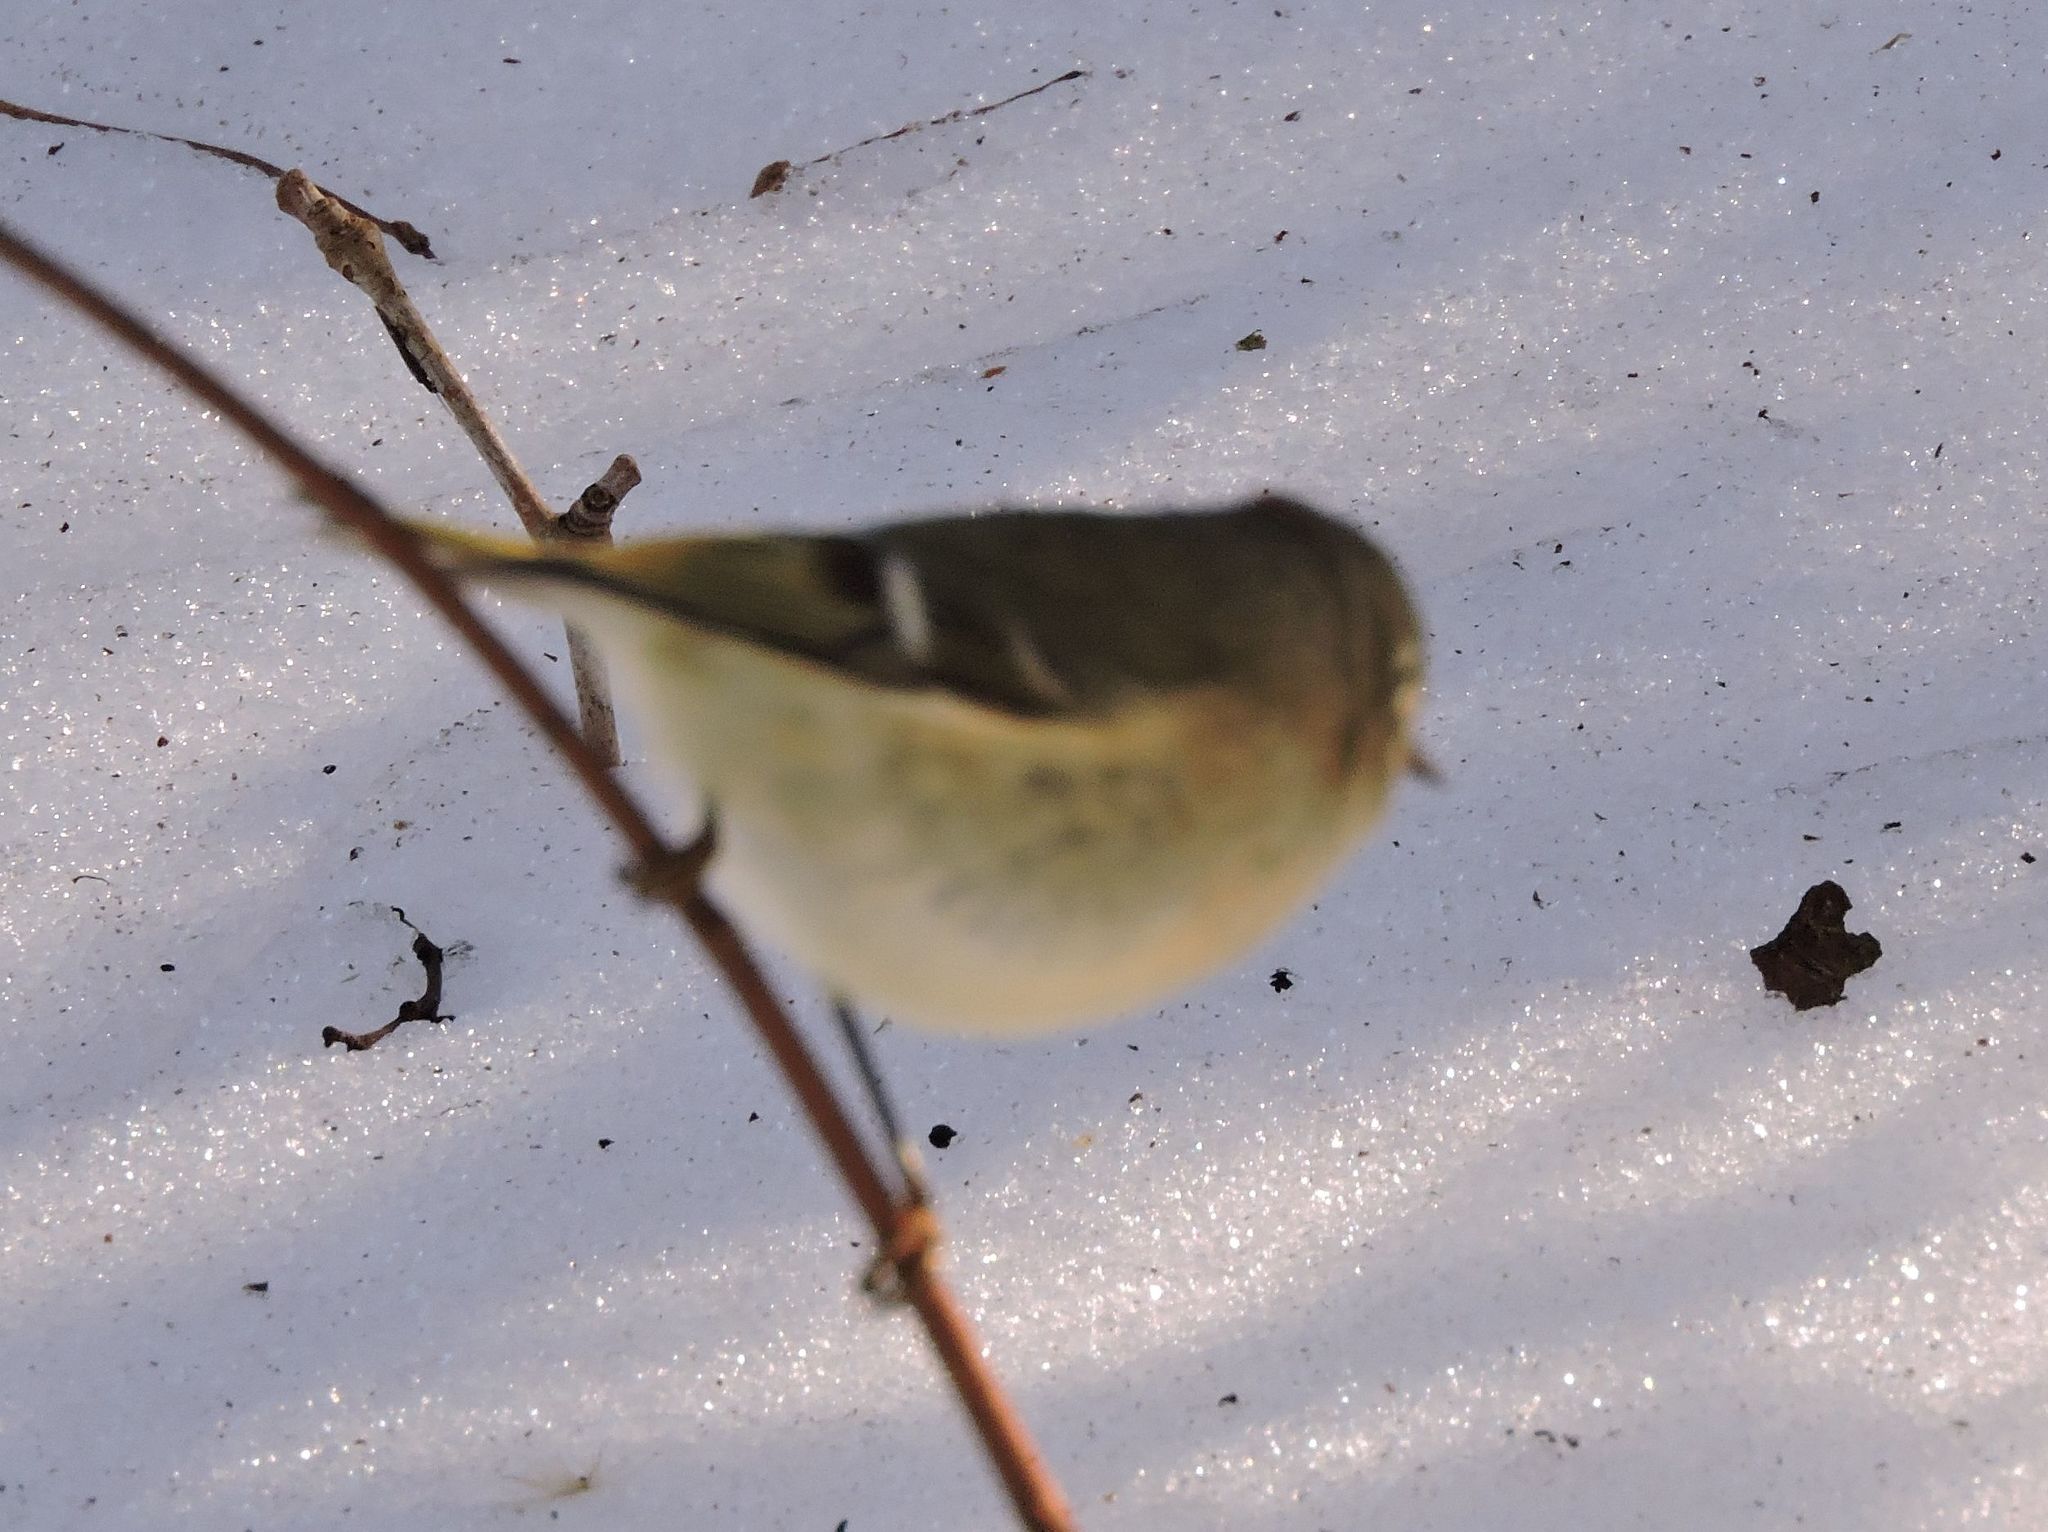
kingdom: Animalia
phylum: Chordata
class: Aves
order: Passeriformes
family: Regulidae
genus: Regulus
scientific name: Regulus calendula
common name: Ruby-crowned kinglet
